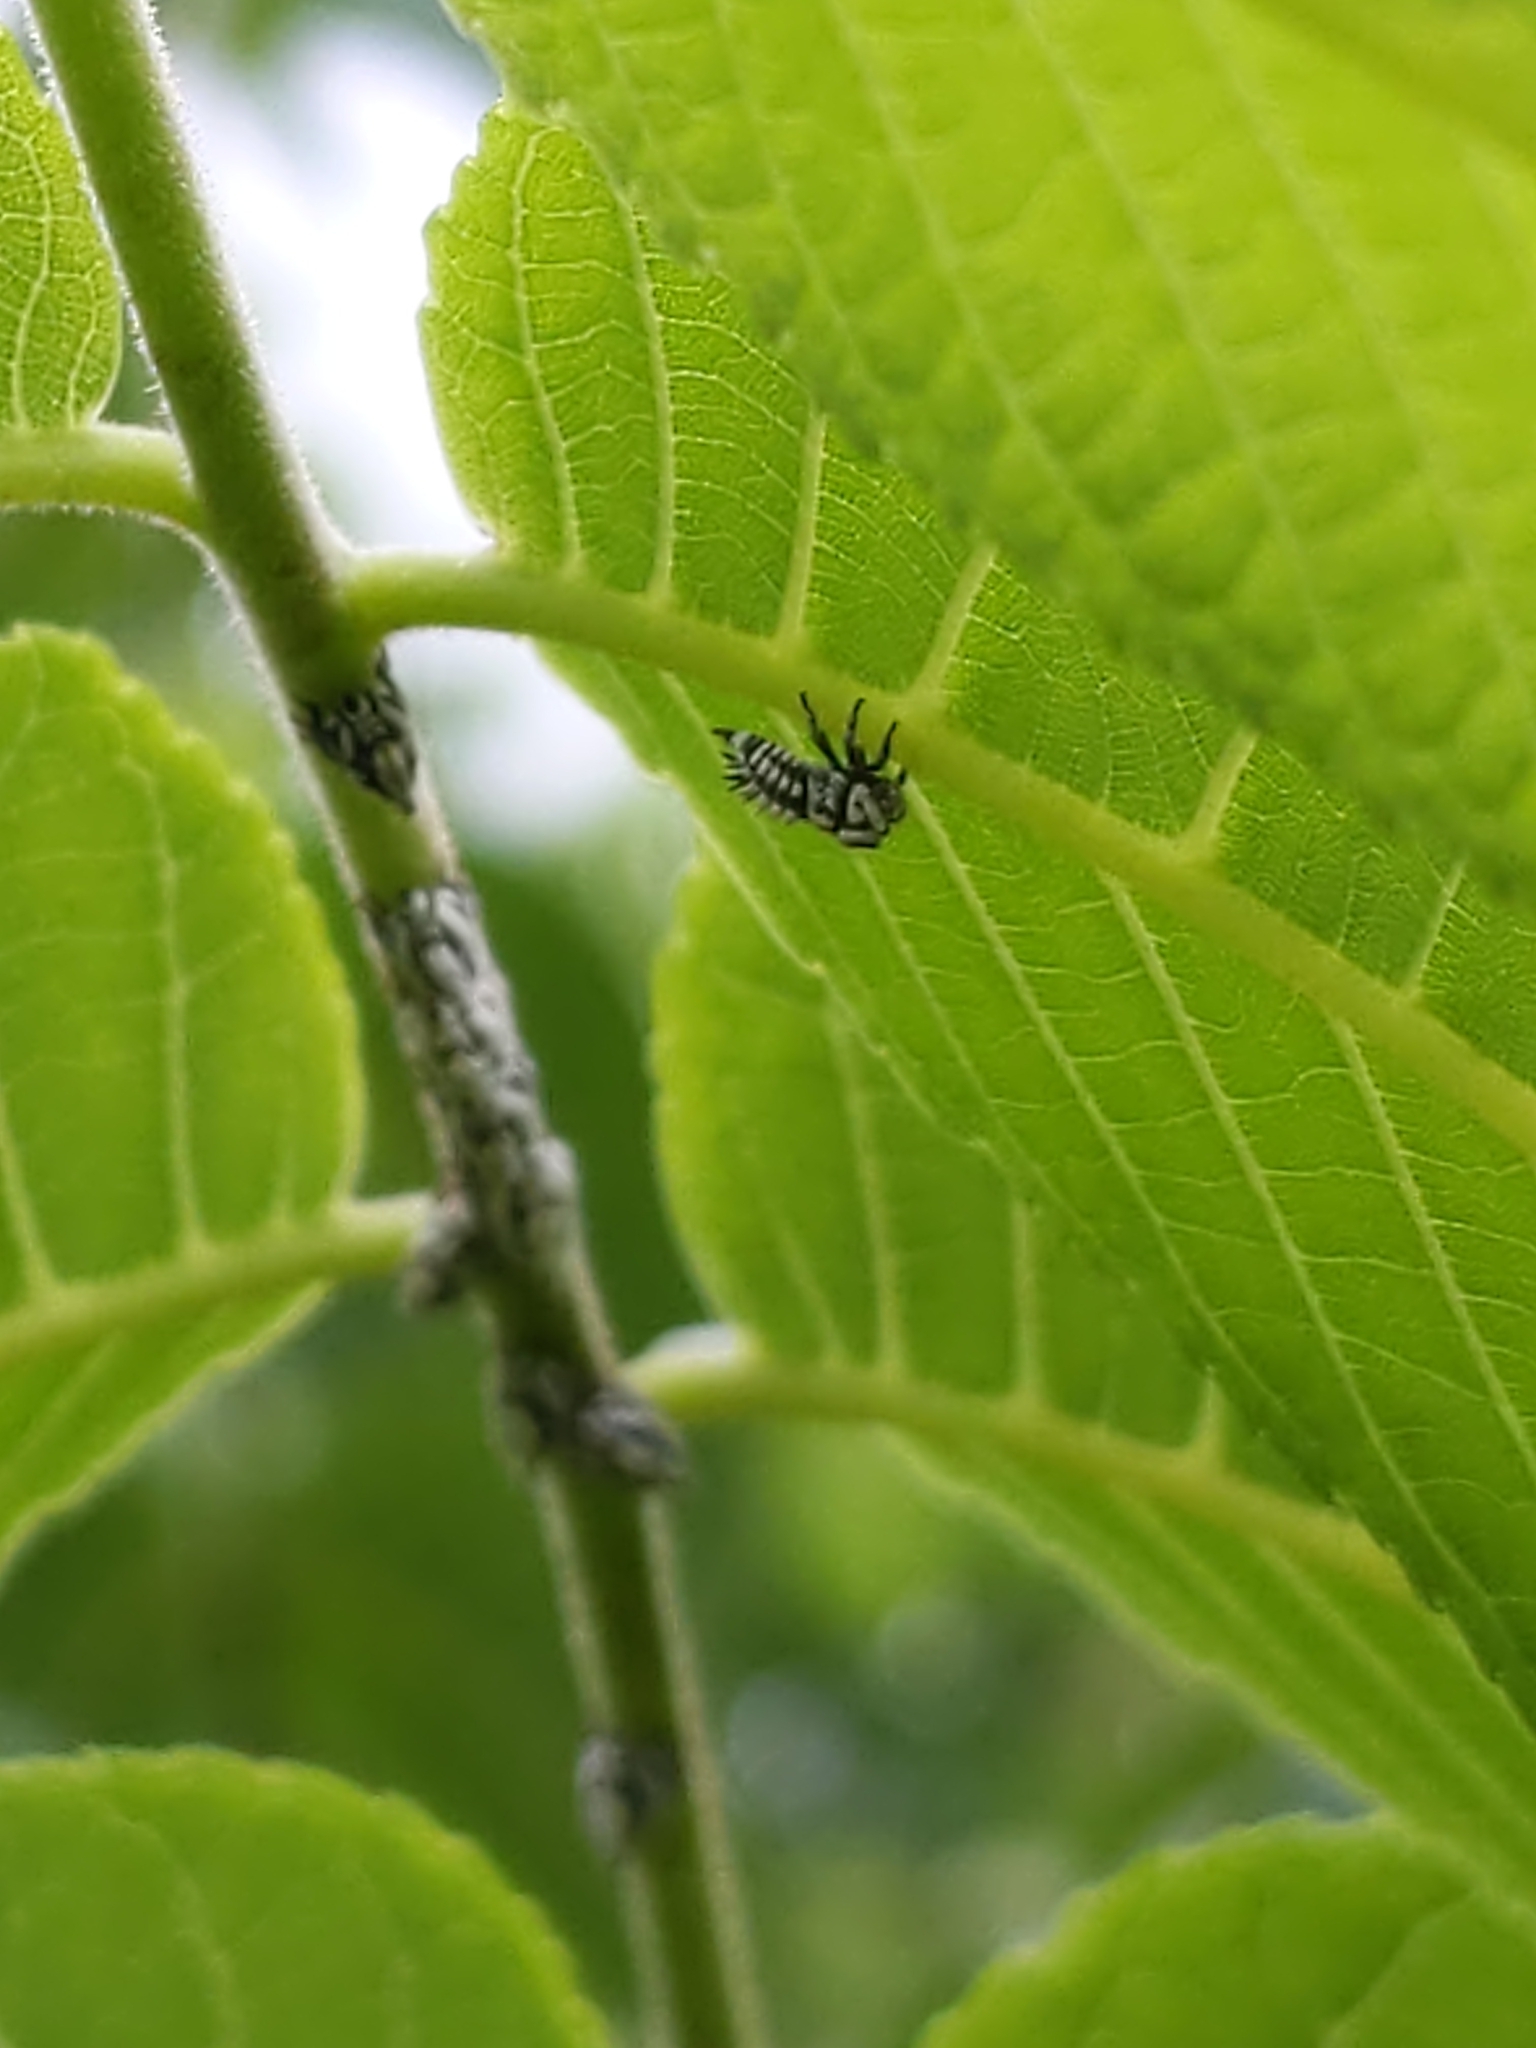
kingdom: Animalia
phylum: Arthropoda
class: Insecta
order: Hemiptera
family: Membracidae
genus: Enchenopa
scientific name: Enchenopa
